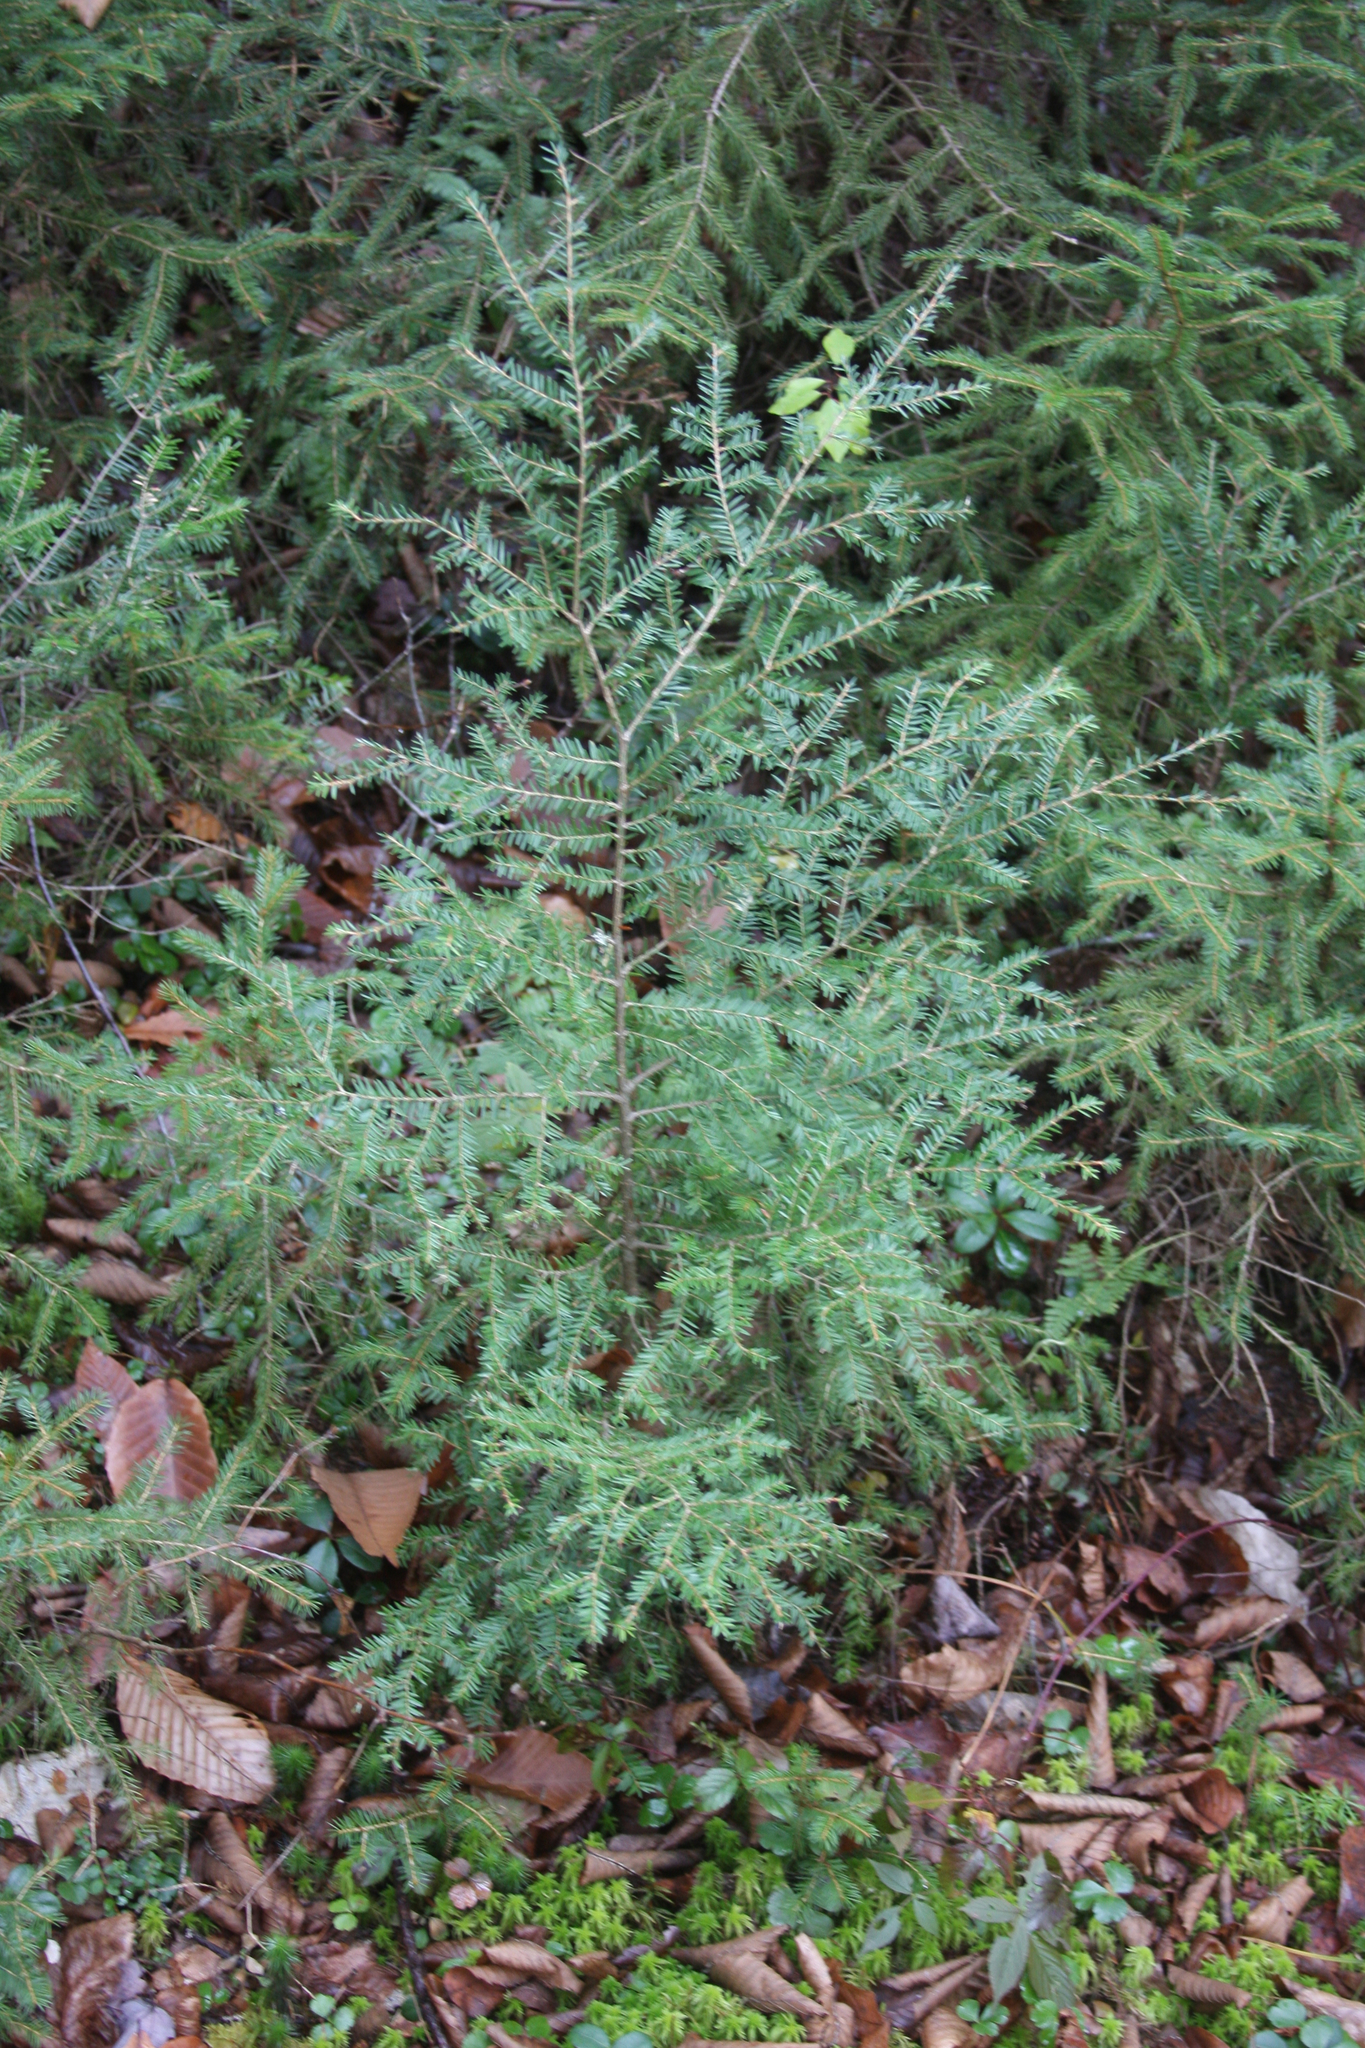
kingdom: Plantae
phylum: Tracheophyta
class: Pinopsida
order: Pinales
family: Pinaceae
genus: Tsuga
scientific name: Tsuga canadensis
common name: Eastern hemlock
